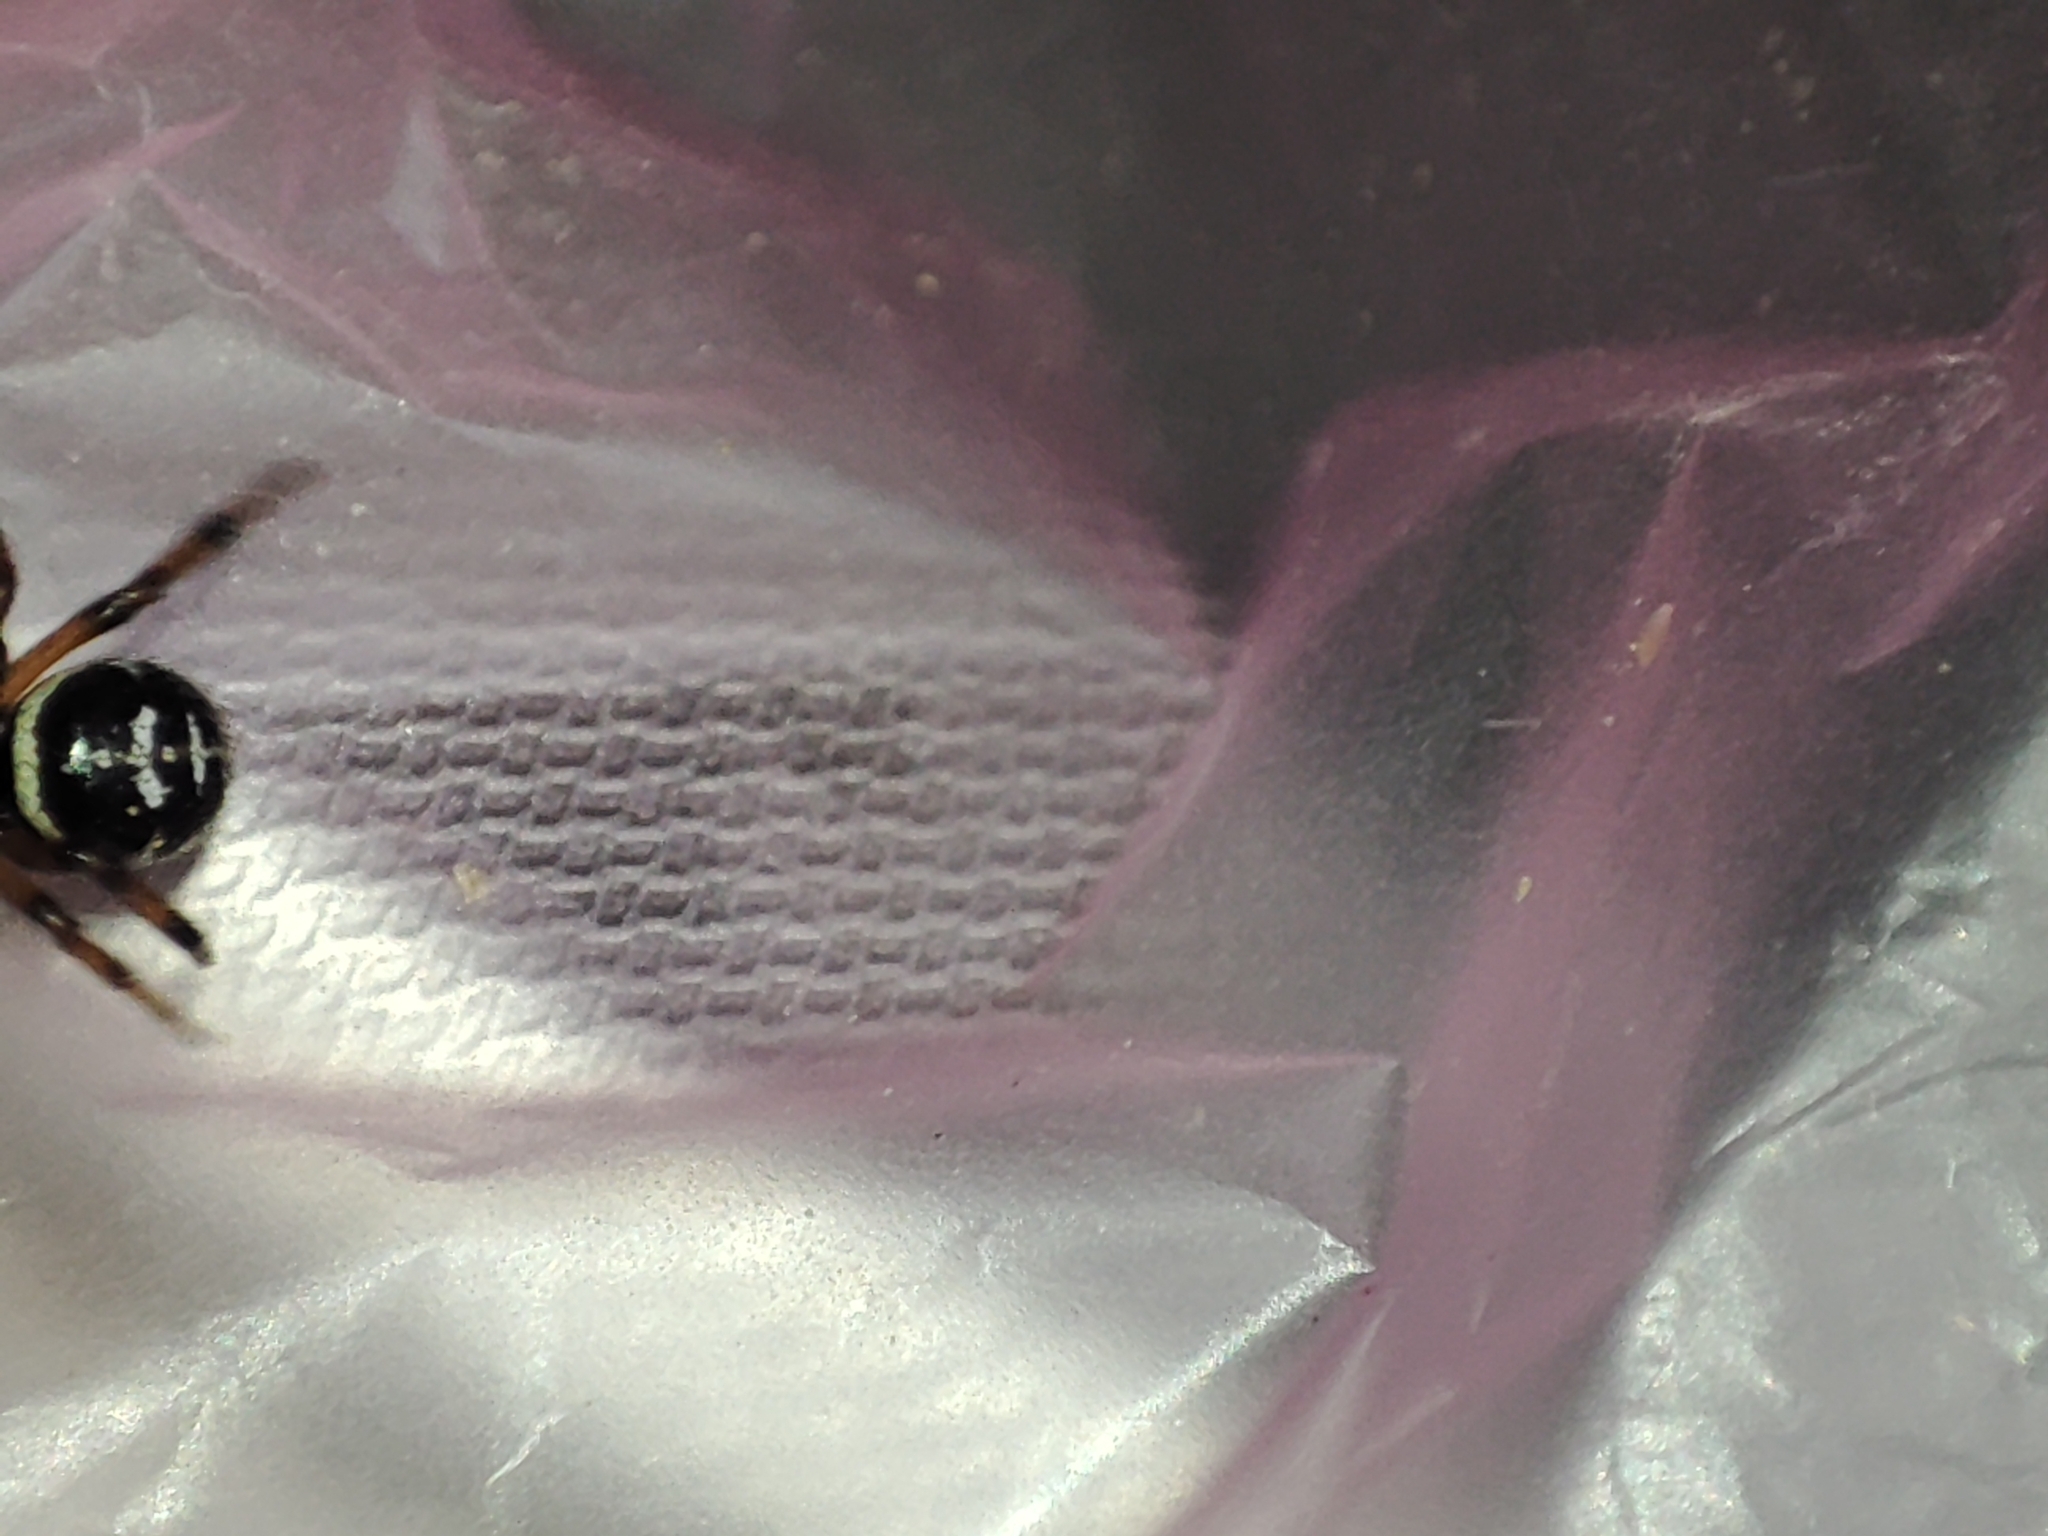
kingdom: Animalia
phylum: Arthropoda
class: Arachnida
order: Araneae
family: Theridiidae
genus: Steatoda
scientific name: Steatoda paykulliana
